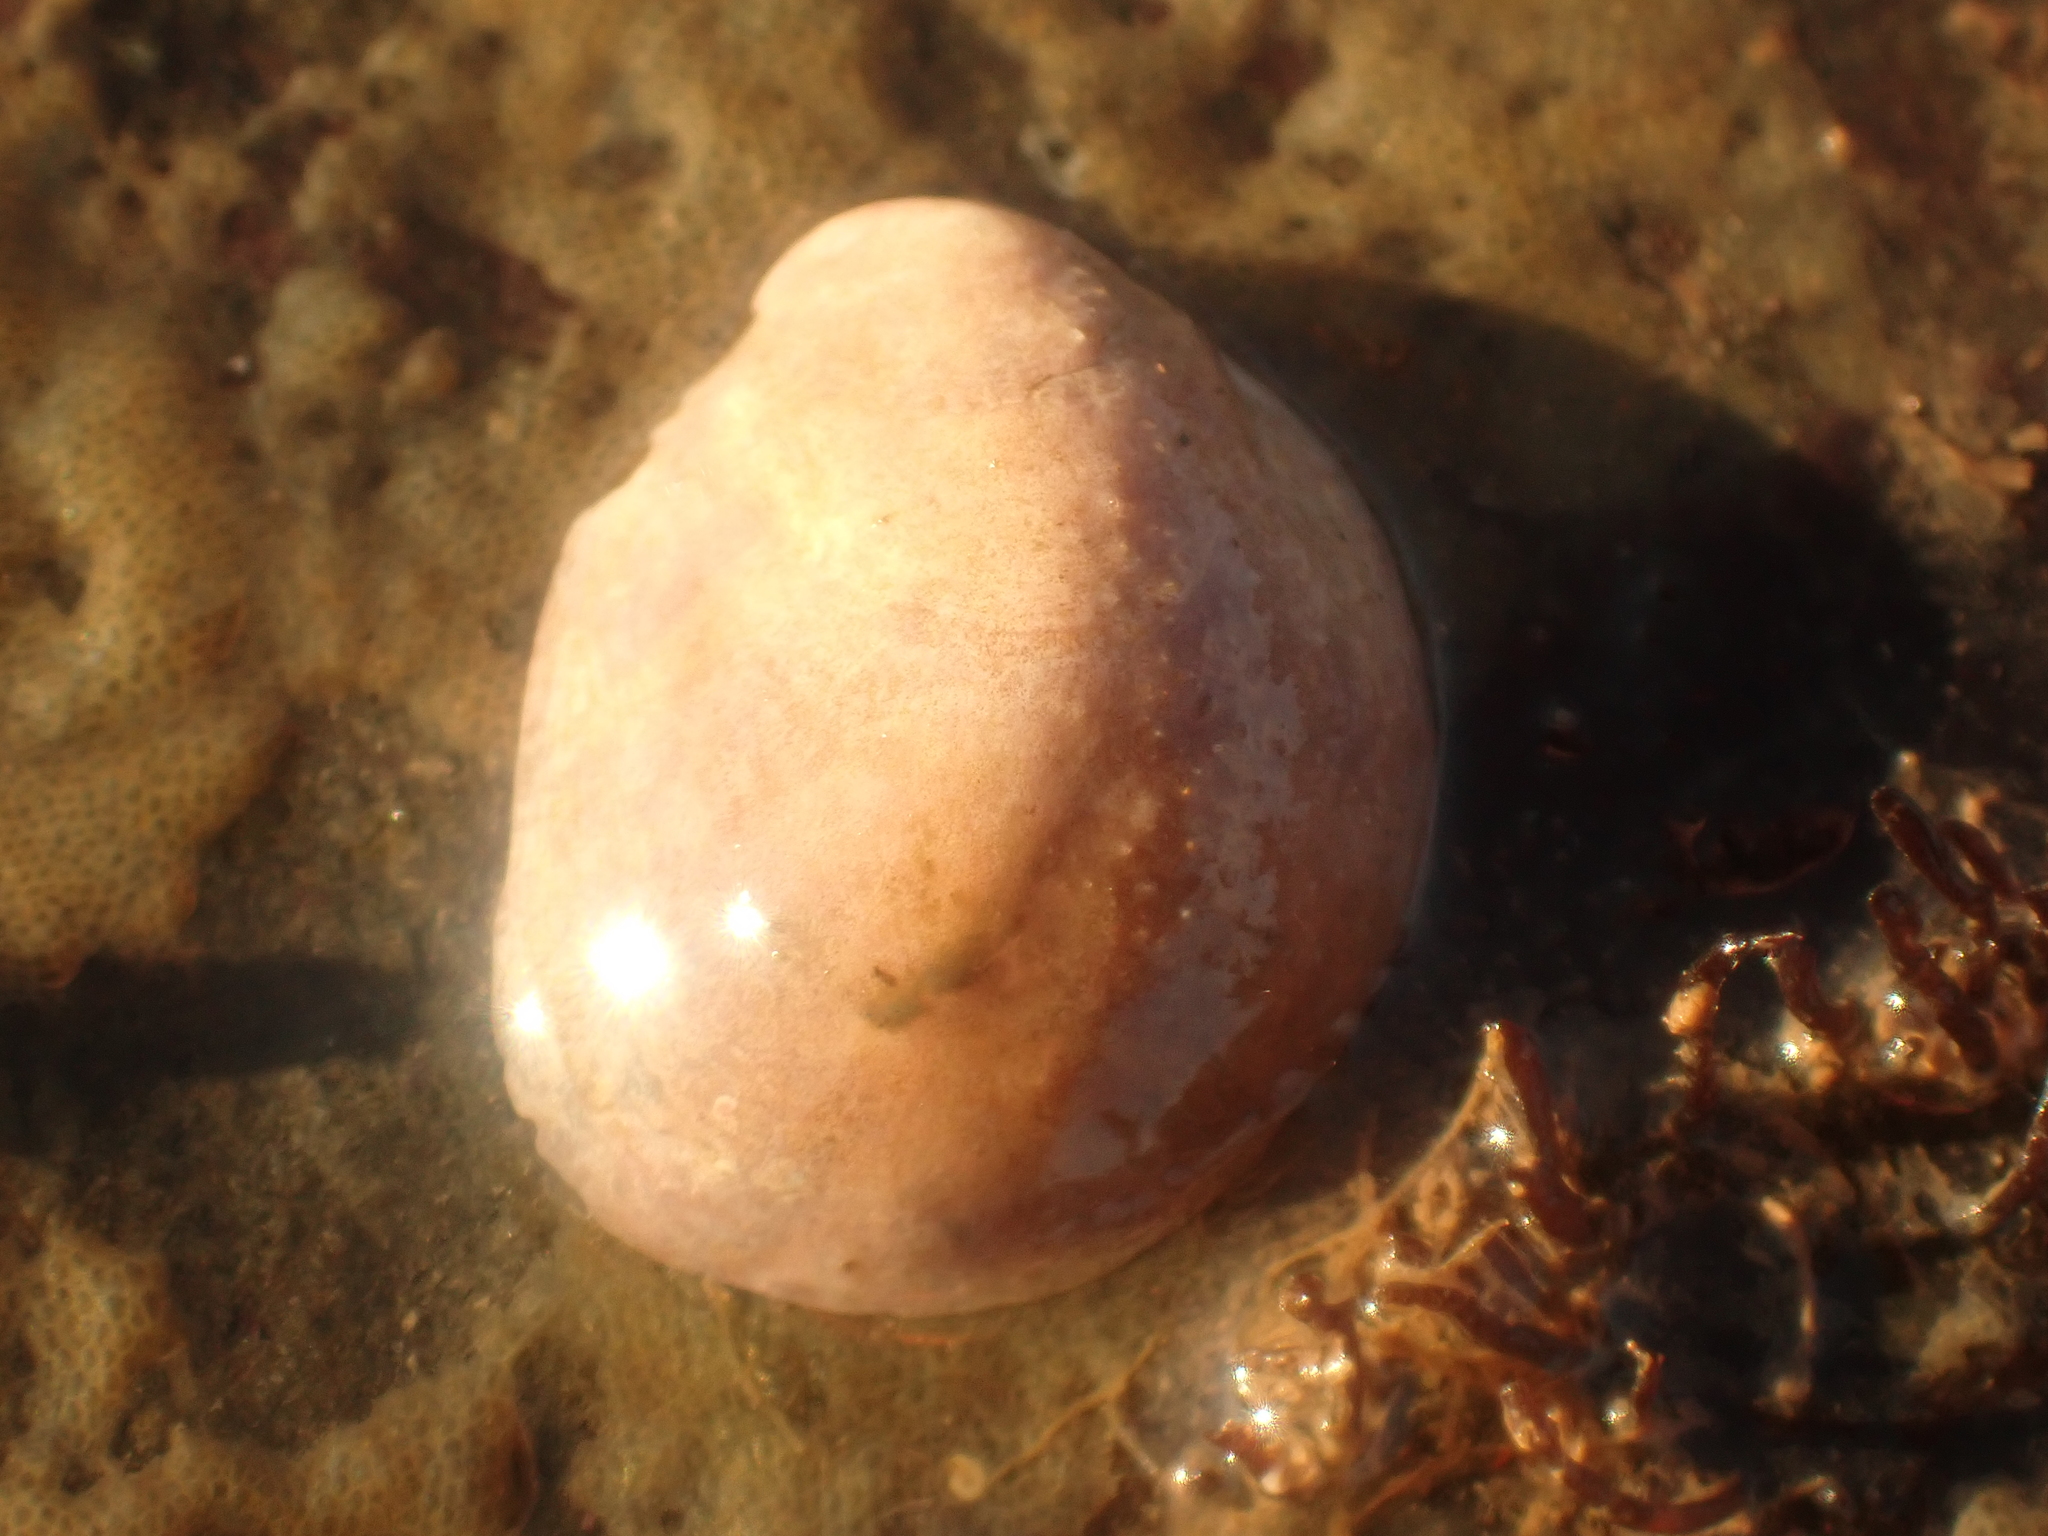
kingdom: Animalia
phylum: Mollusca
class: Gastropoda
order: Littorinimorpha
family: Calyptraeidae
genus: Crepidula
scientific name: Crepidula fornicata
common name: Slipper limpet
